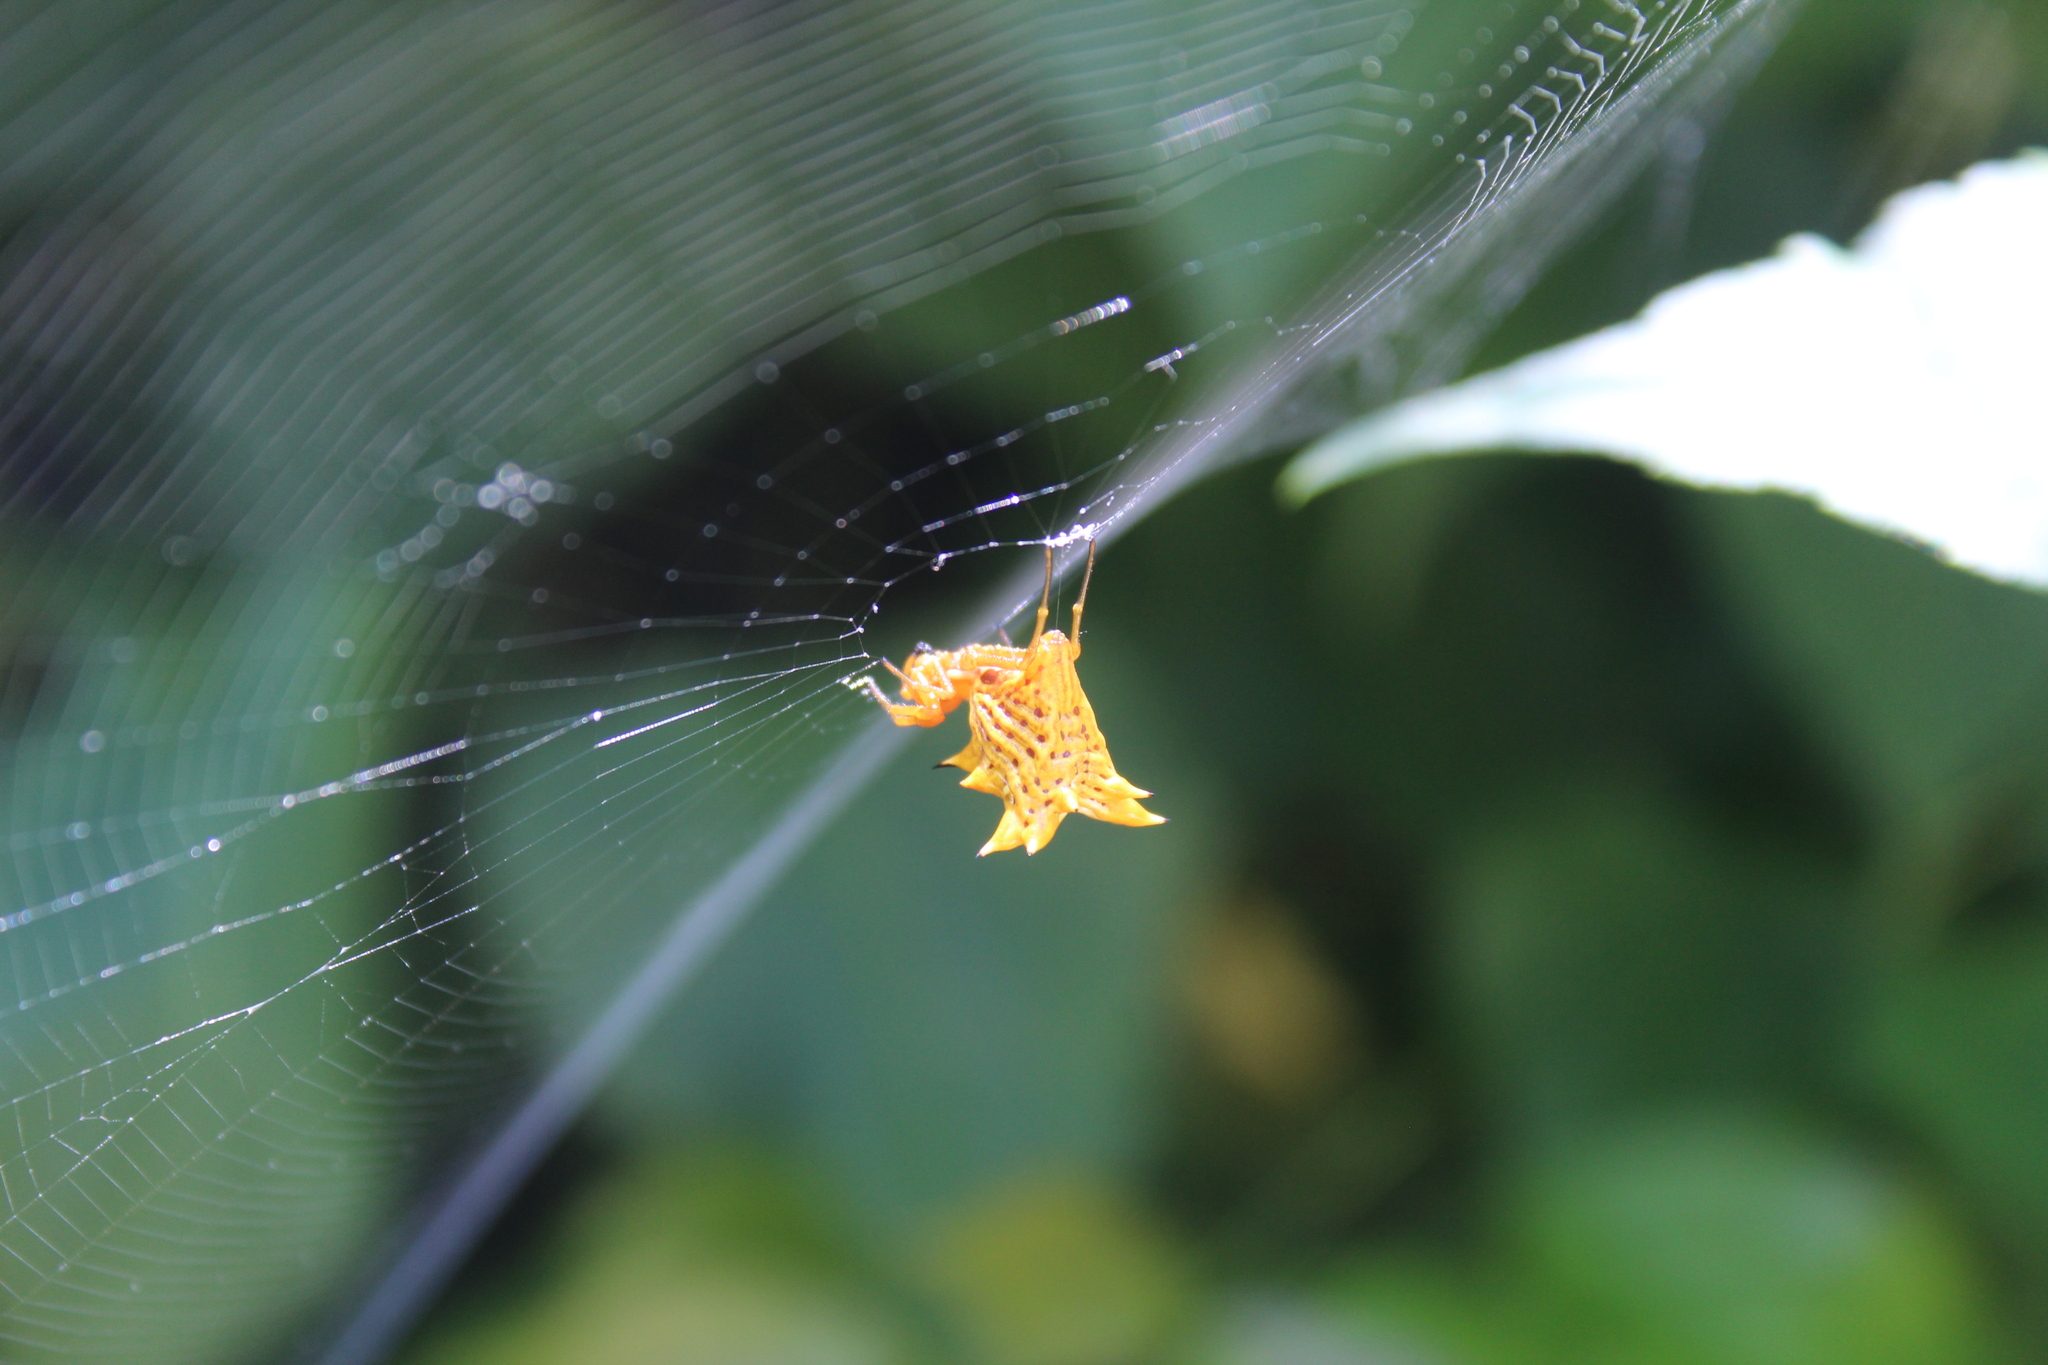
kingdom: Animalia
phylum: Arthropoda
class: Arachnida
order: Araneae
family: Araneidae
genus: Micrathena
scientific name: Micrathena gracilis
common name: Orb weavers
